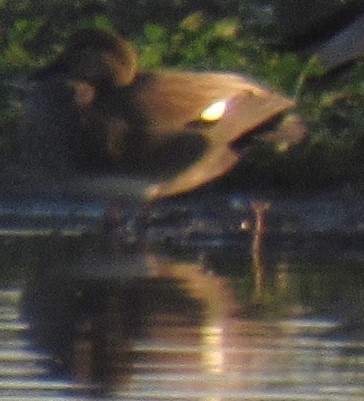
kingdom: Animalia
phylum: Chordata
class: Aves
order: Anseriformes
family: Anatidae
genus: Mareca
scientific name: Mareca strepera
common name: Gadwall
